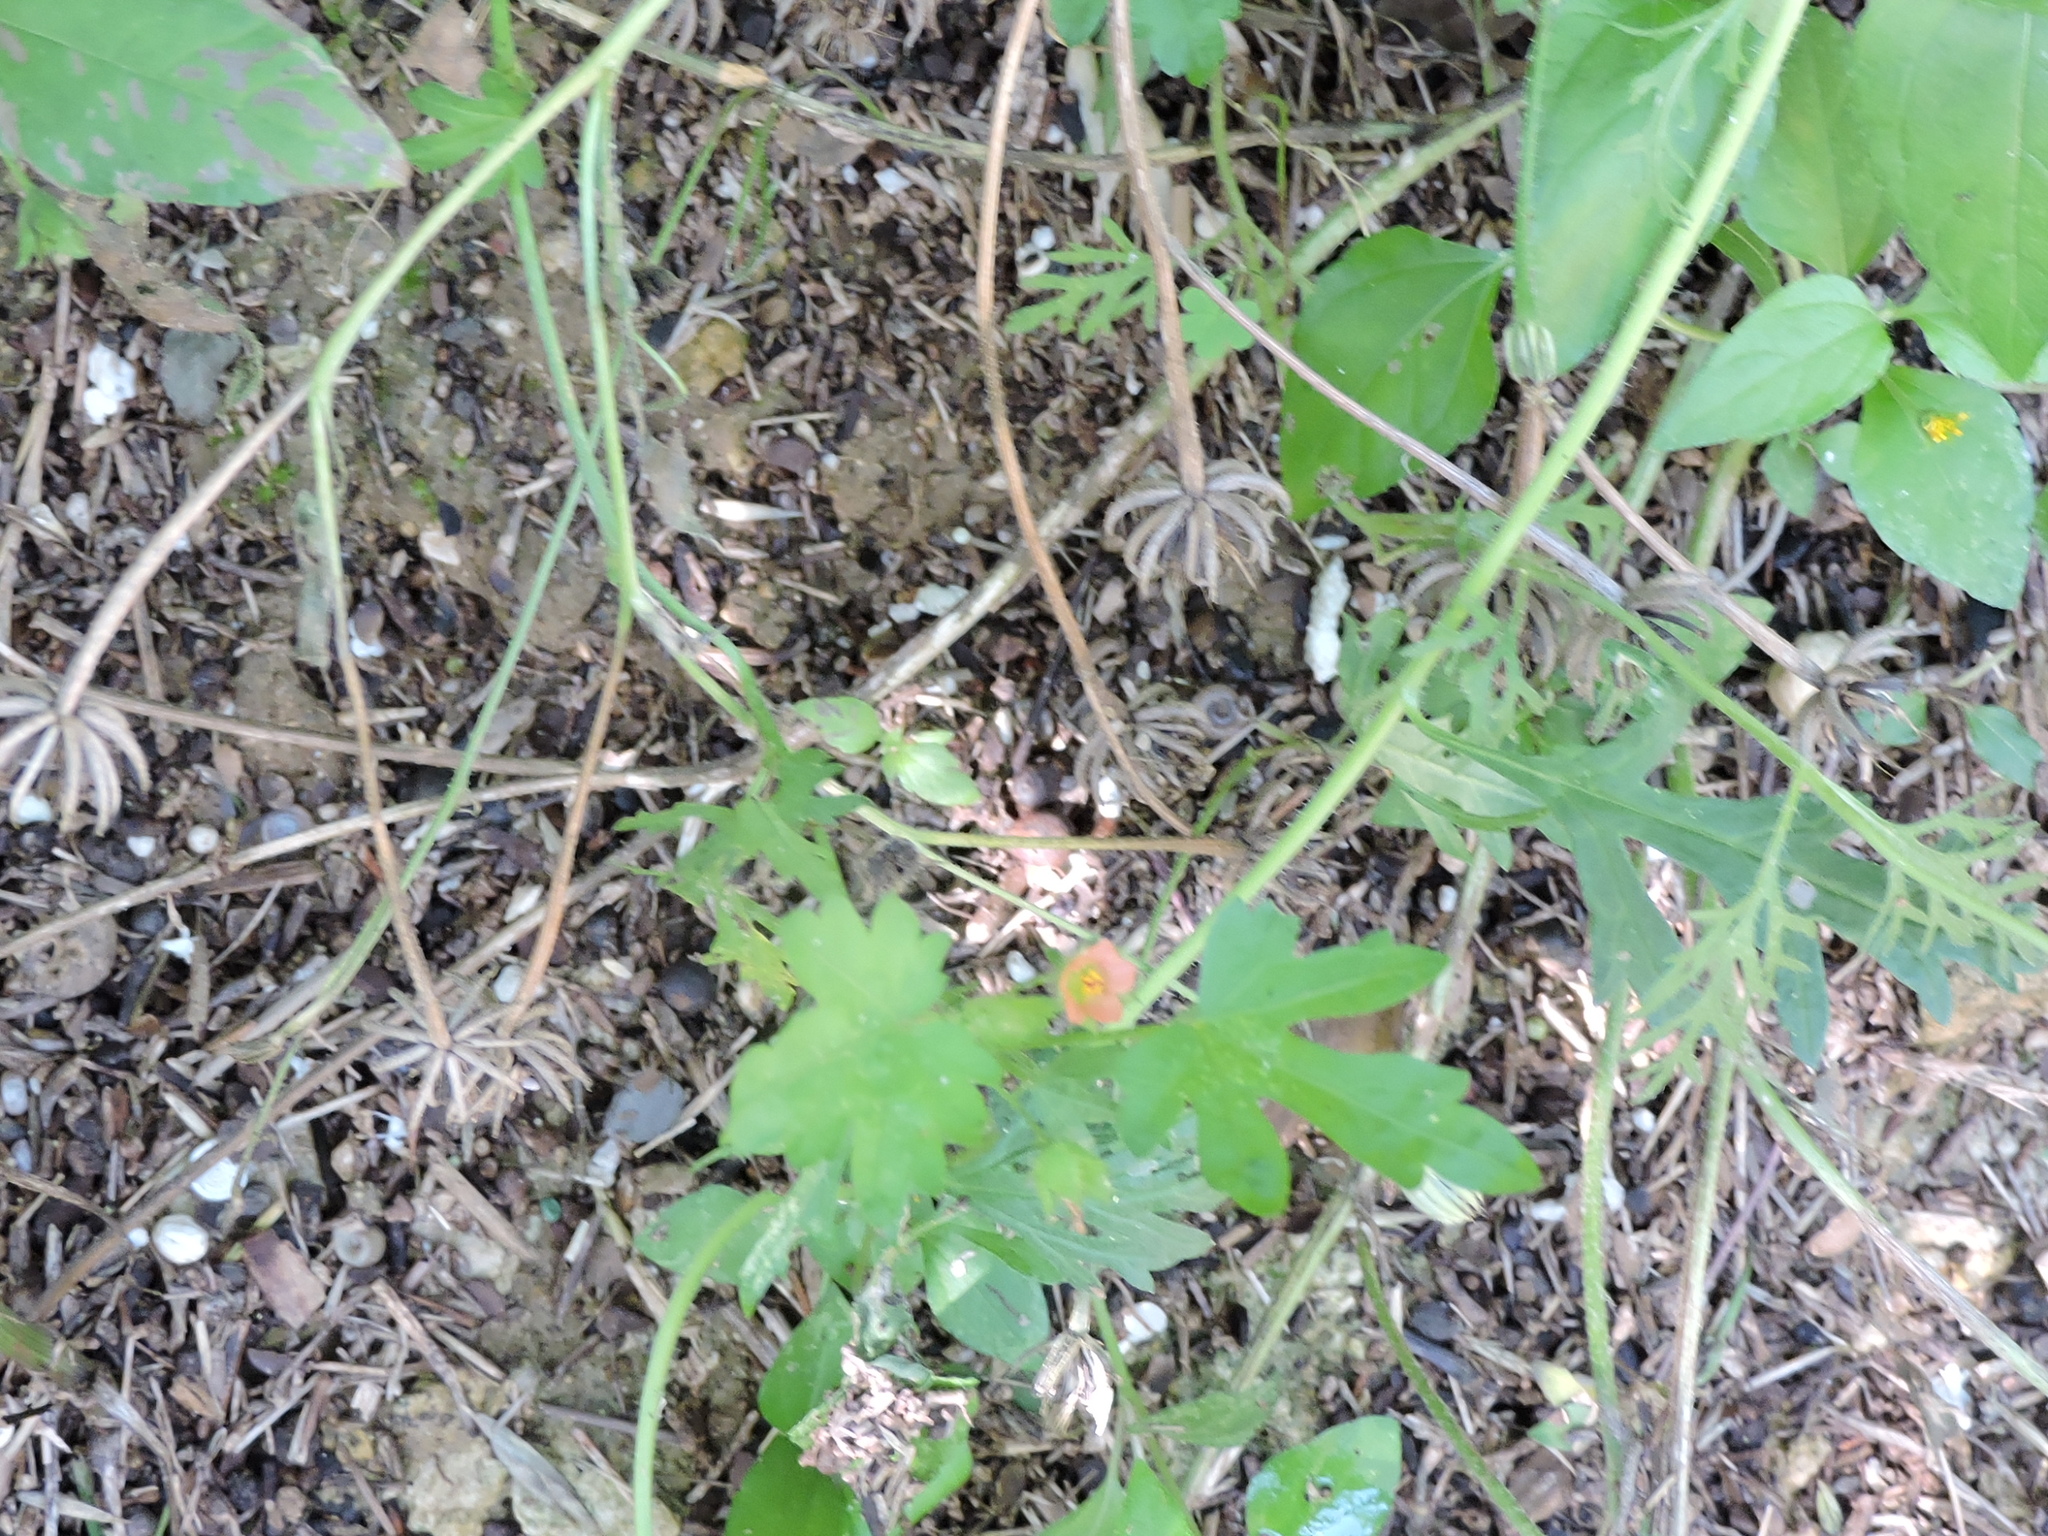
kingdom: Plantae
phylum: Tracheophyta
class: Magnoliopsida
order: Malvales
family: Malvaceae
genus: Modiola
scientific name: Modiola caroliniana
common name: Carolina bristlemallow
